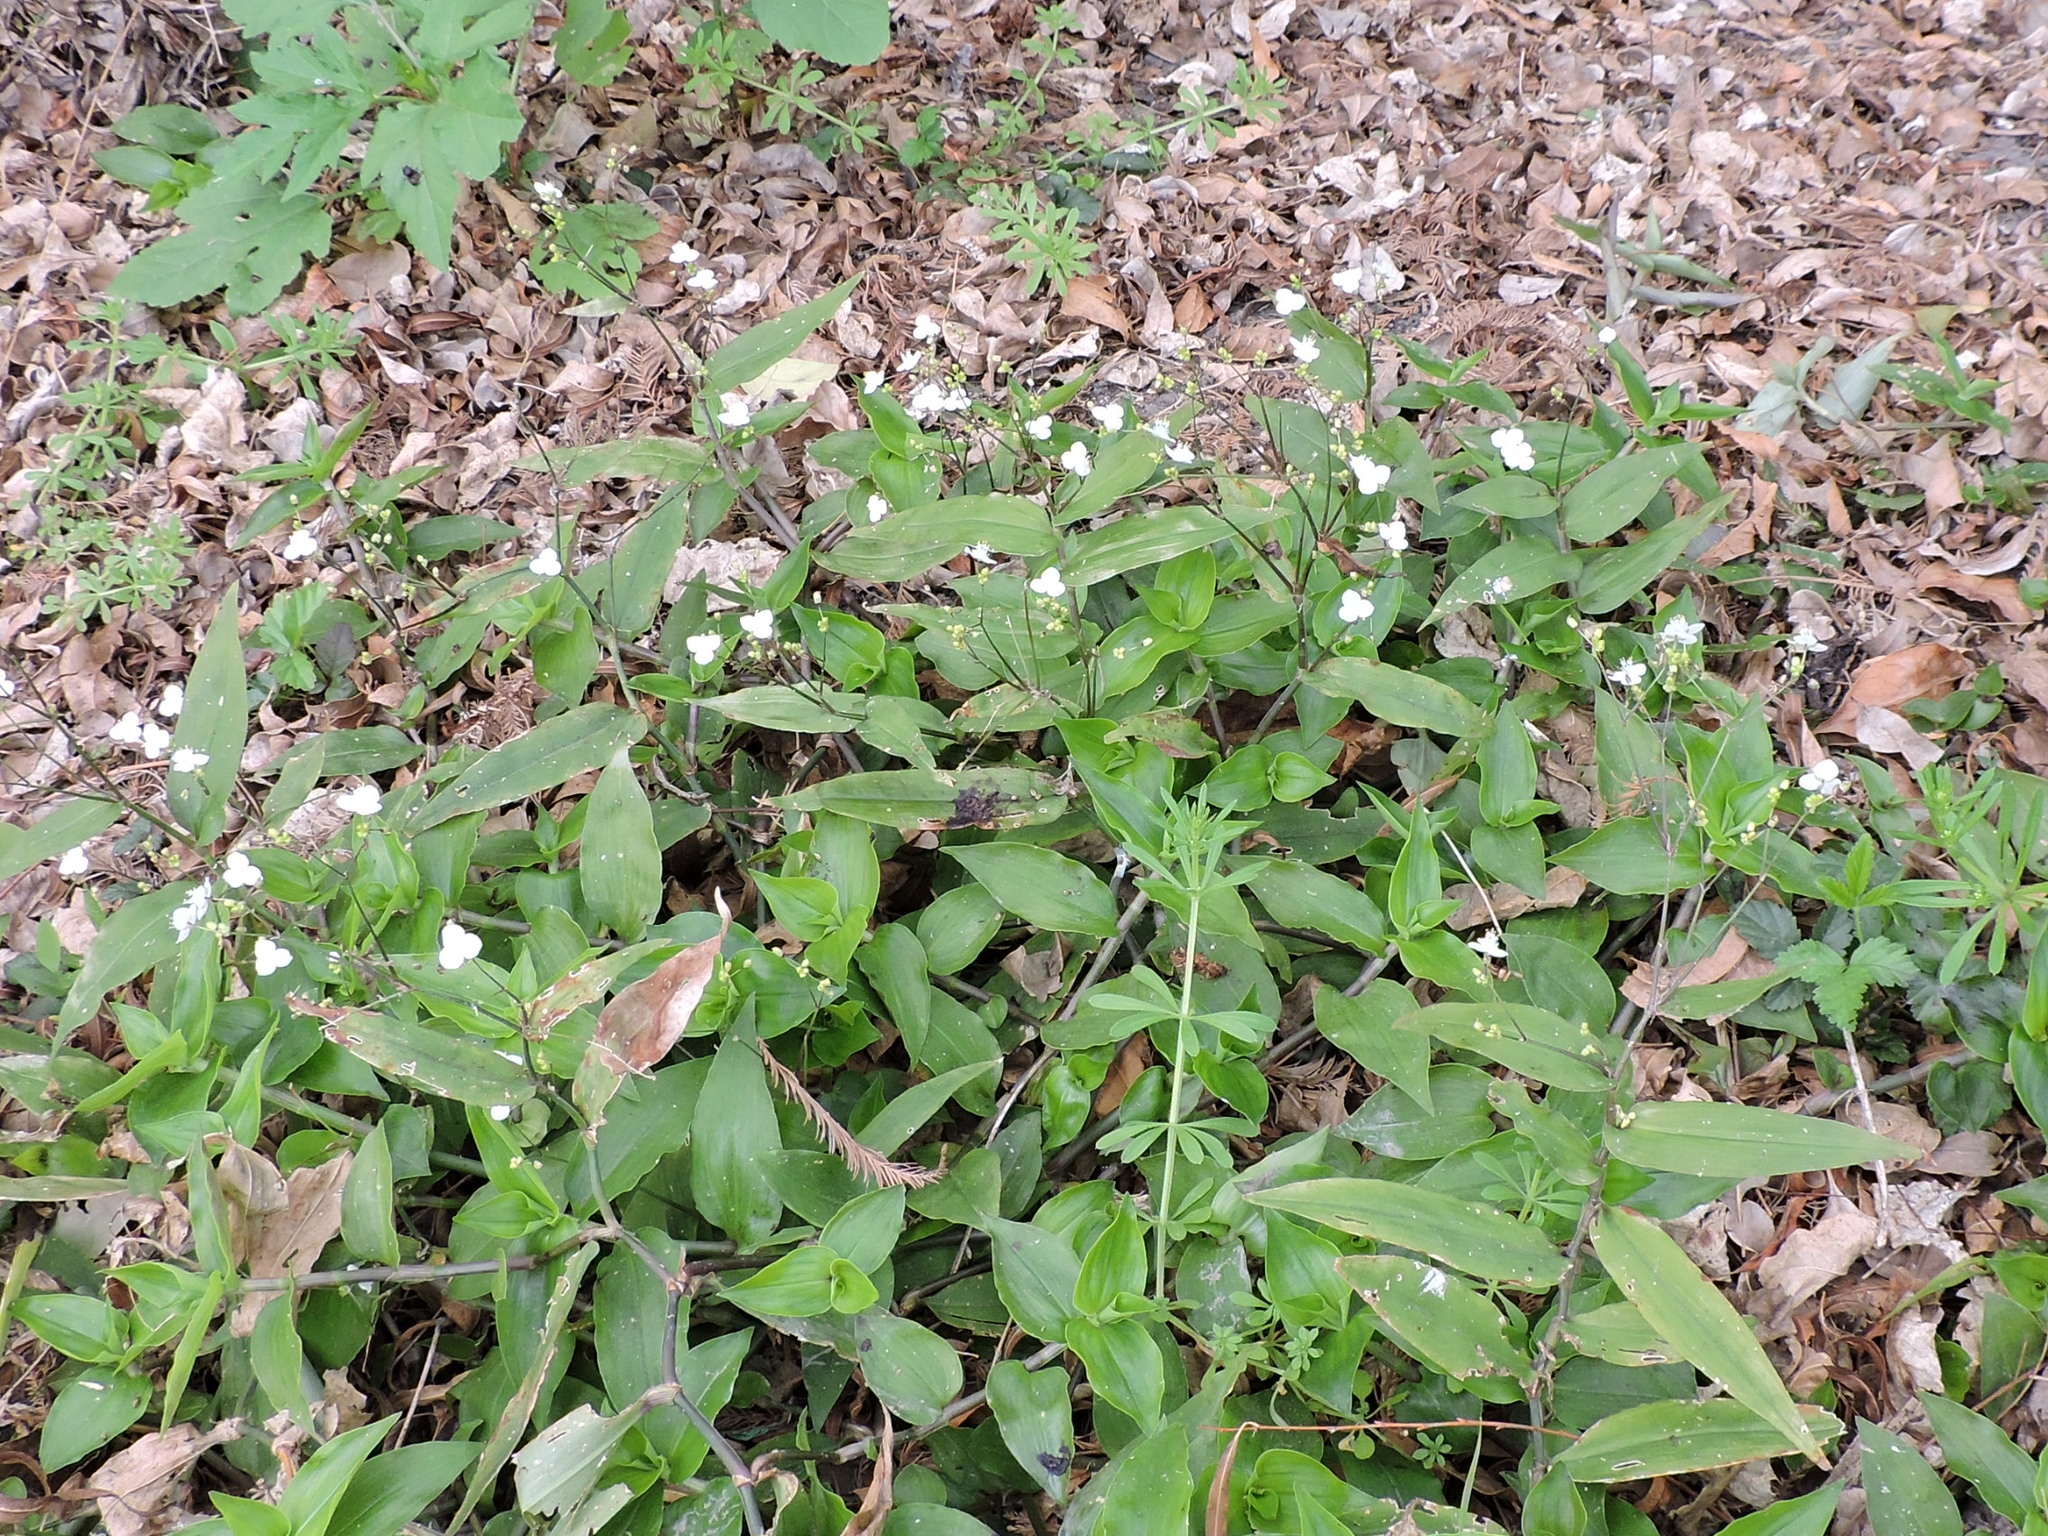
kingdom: Plantae
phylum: Tracheophyta
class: Liliopsida
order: Commelinales
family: Commelinaceae
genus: Gibasis
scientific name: Gibasis pellucida
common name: Dotted bridalveil
